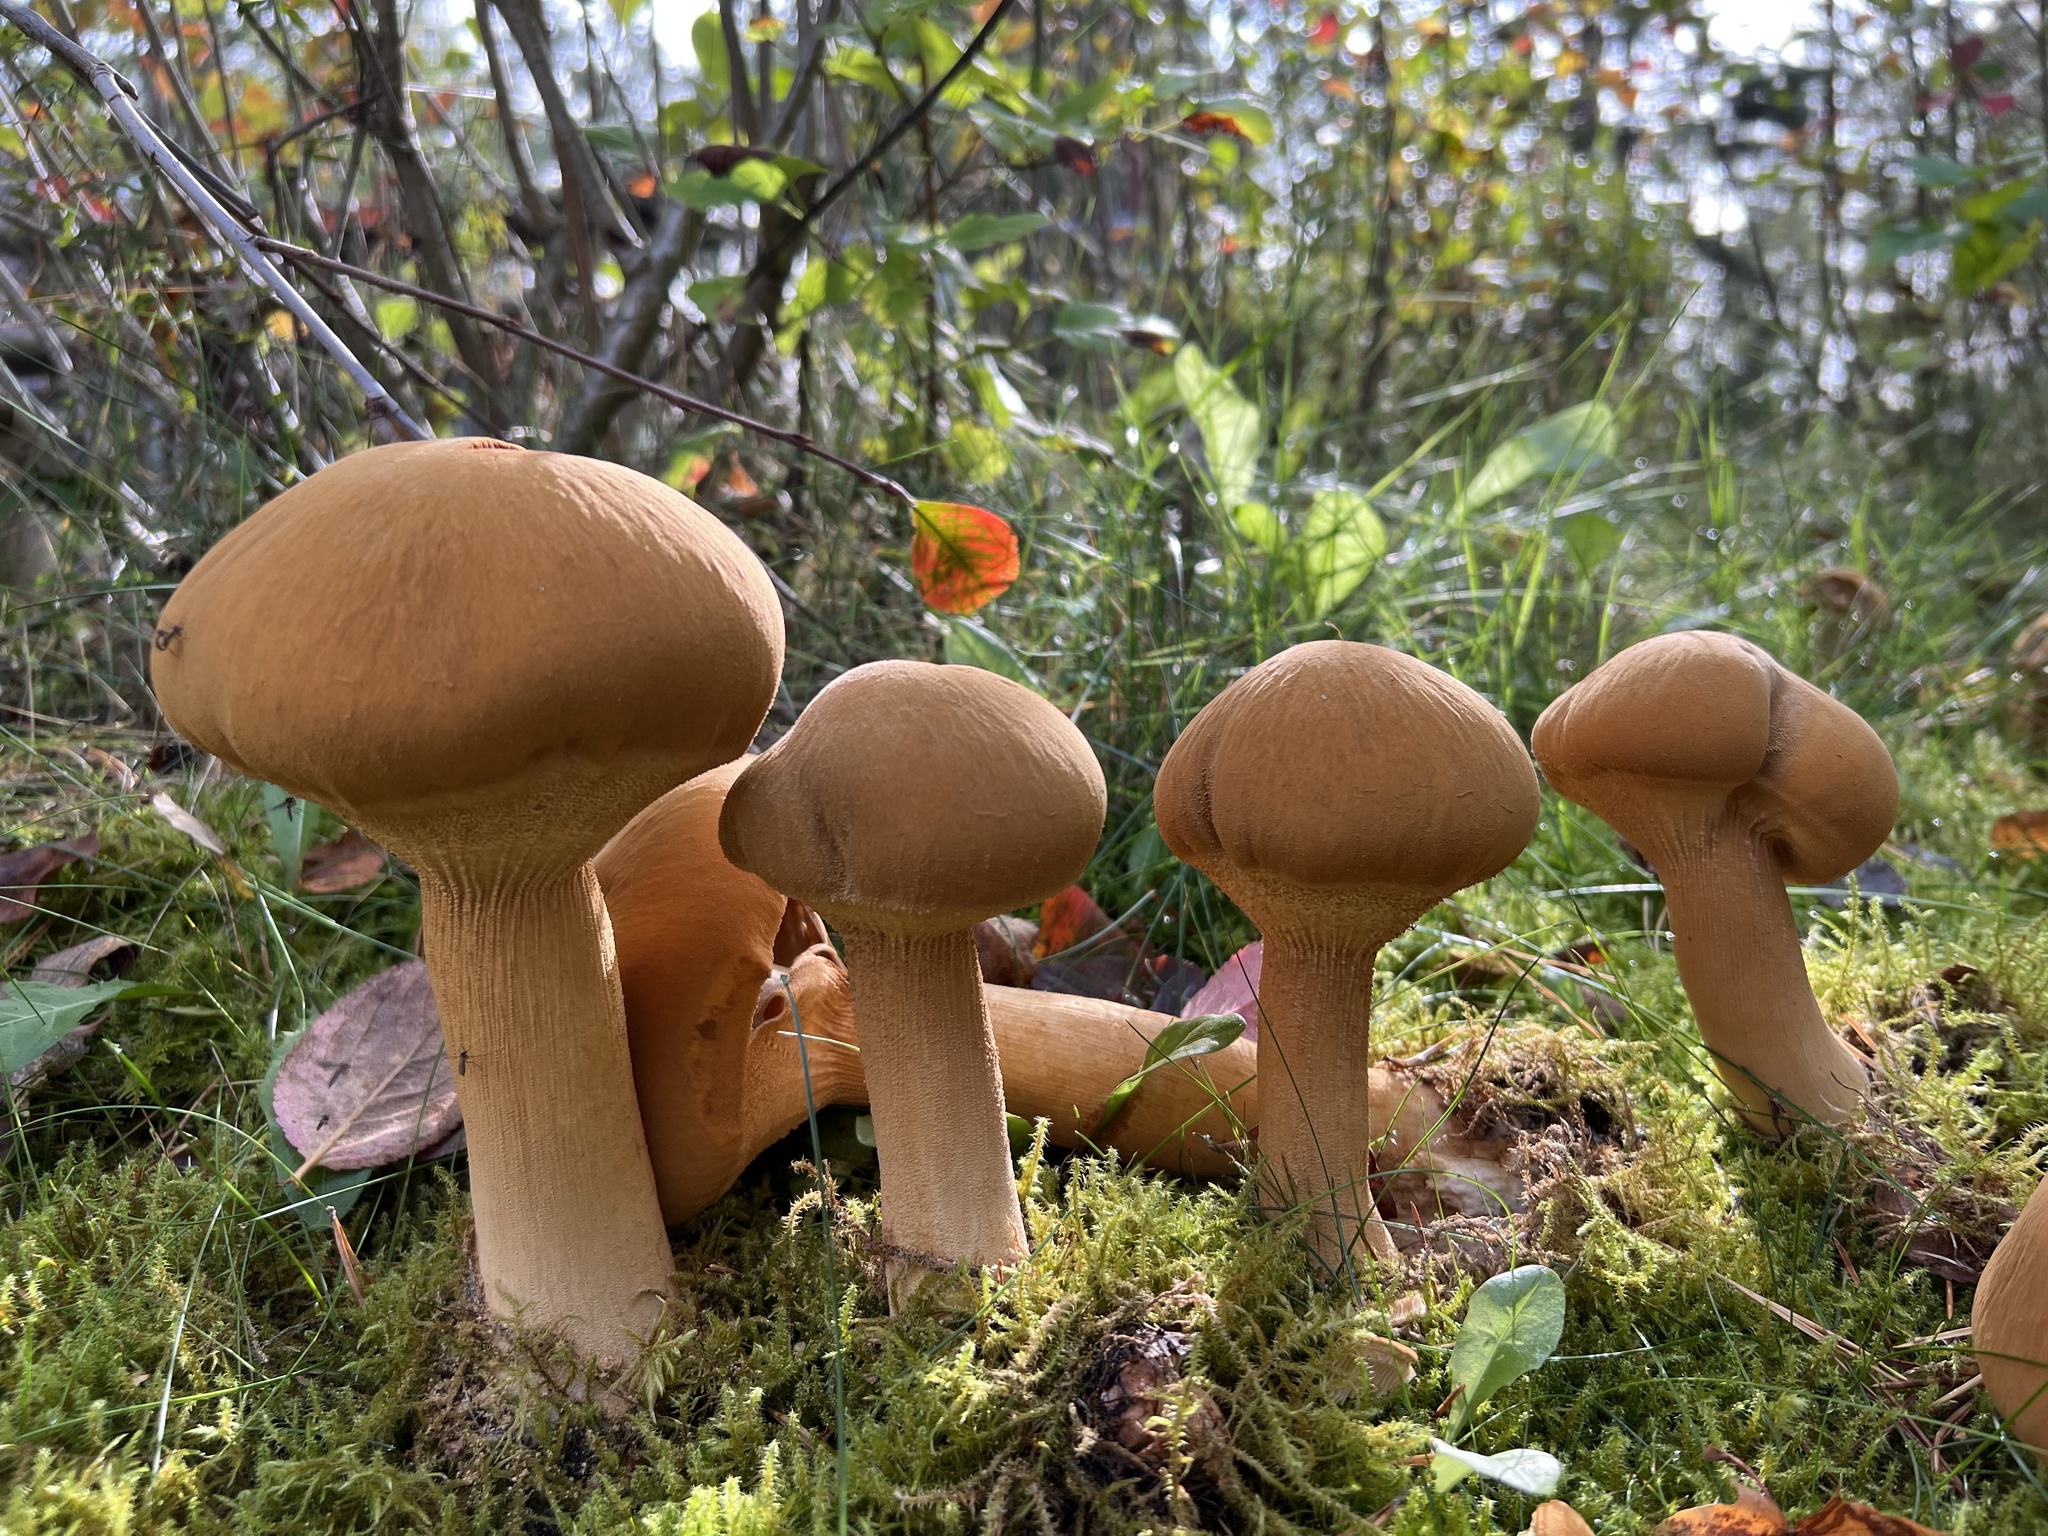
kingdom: Fungi
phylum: Basidiomycota
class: Agaricomycetes
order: Agaricales
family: Tricholomataceae
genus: Phaeolepiota
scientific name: Phaeolepiota aurea
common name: Golden bootleg
